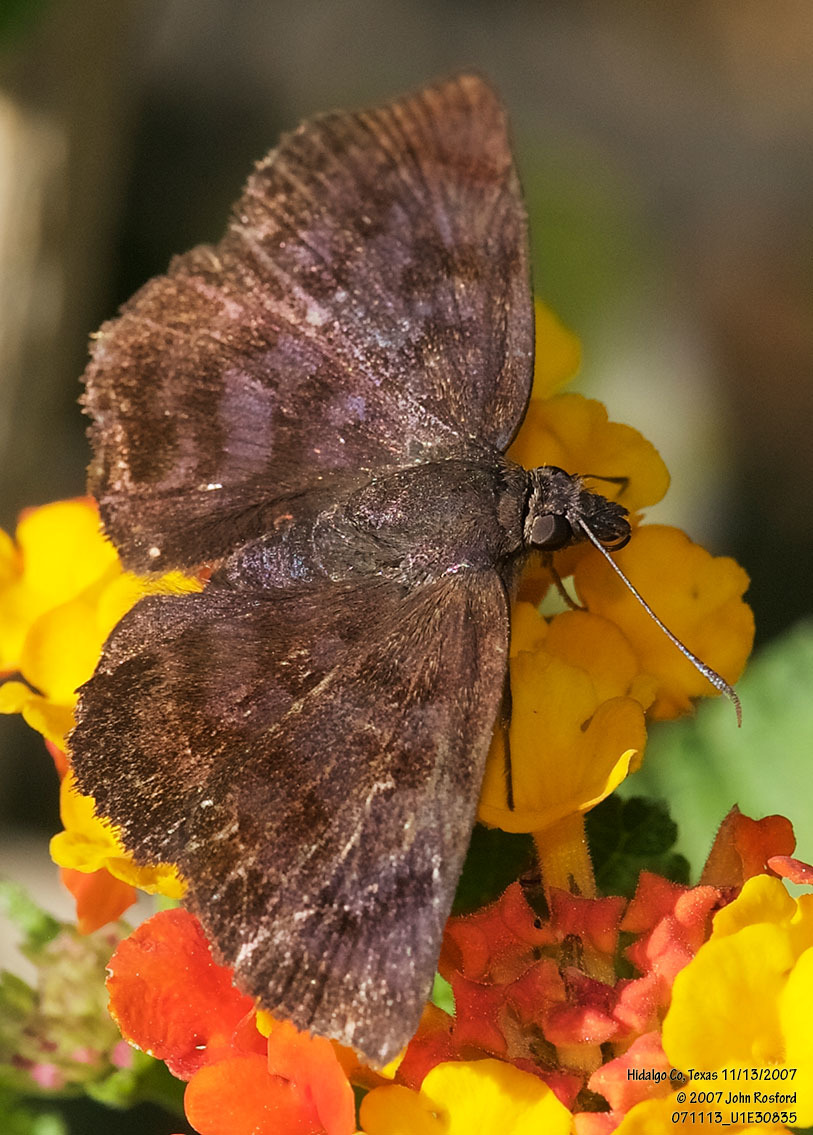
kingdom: Animalia
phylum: Arthropoda
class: Insecta
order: Lepidoptera
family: Hesperiidae
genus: Pellicia
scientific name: Pellicia costimacula
